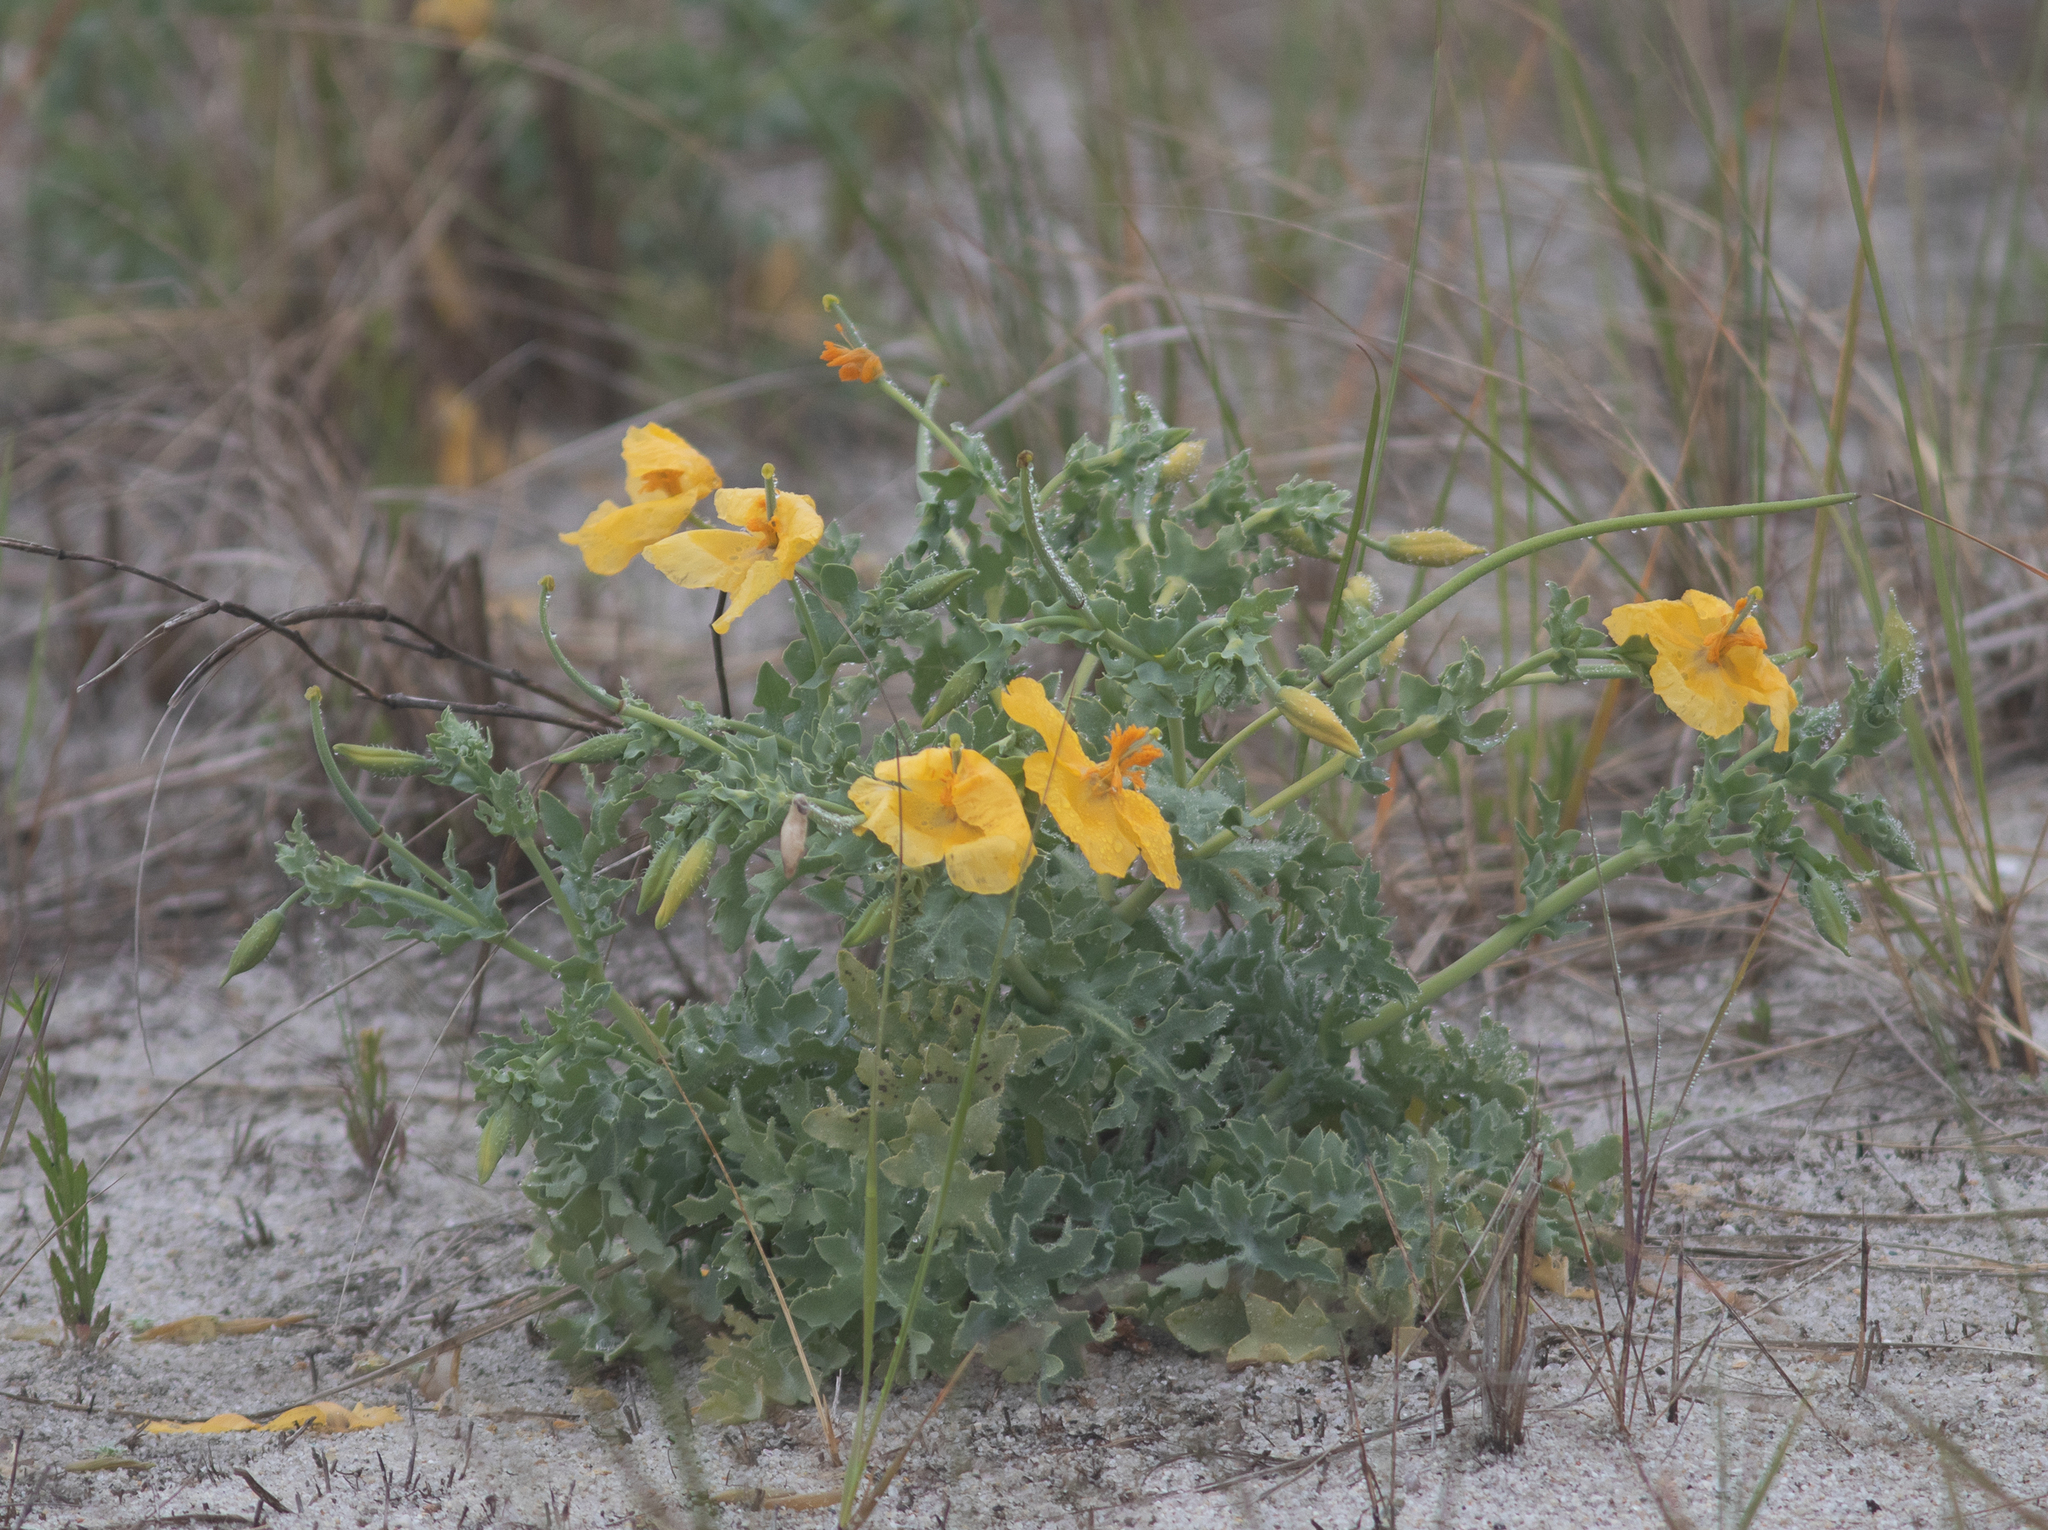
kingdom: Plantae
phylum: Tracheophyta
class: Magnoliopsida
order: Ranunculales
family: Papaveraceae
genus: Glaucium
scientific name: Glaucium flavum
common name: Yellow horned-poppy
